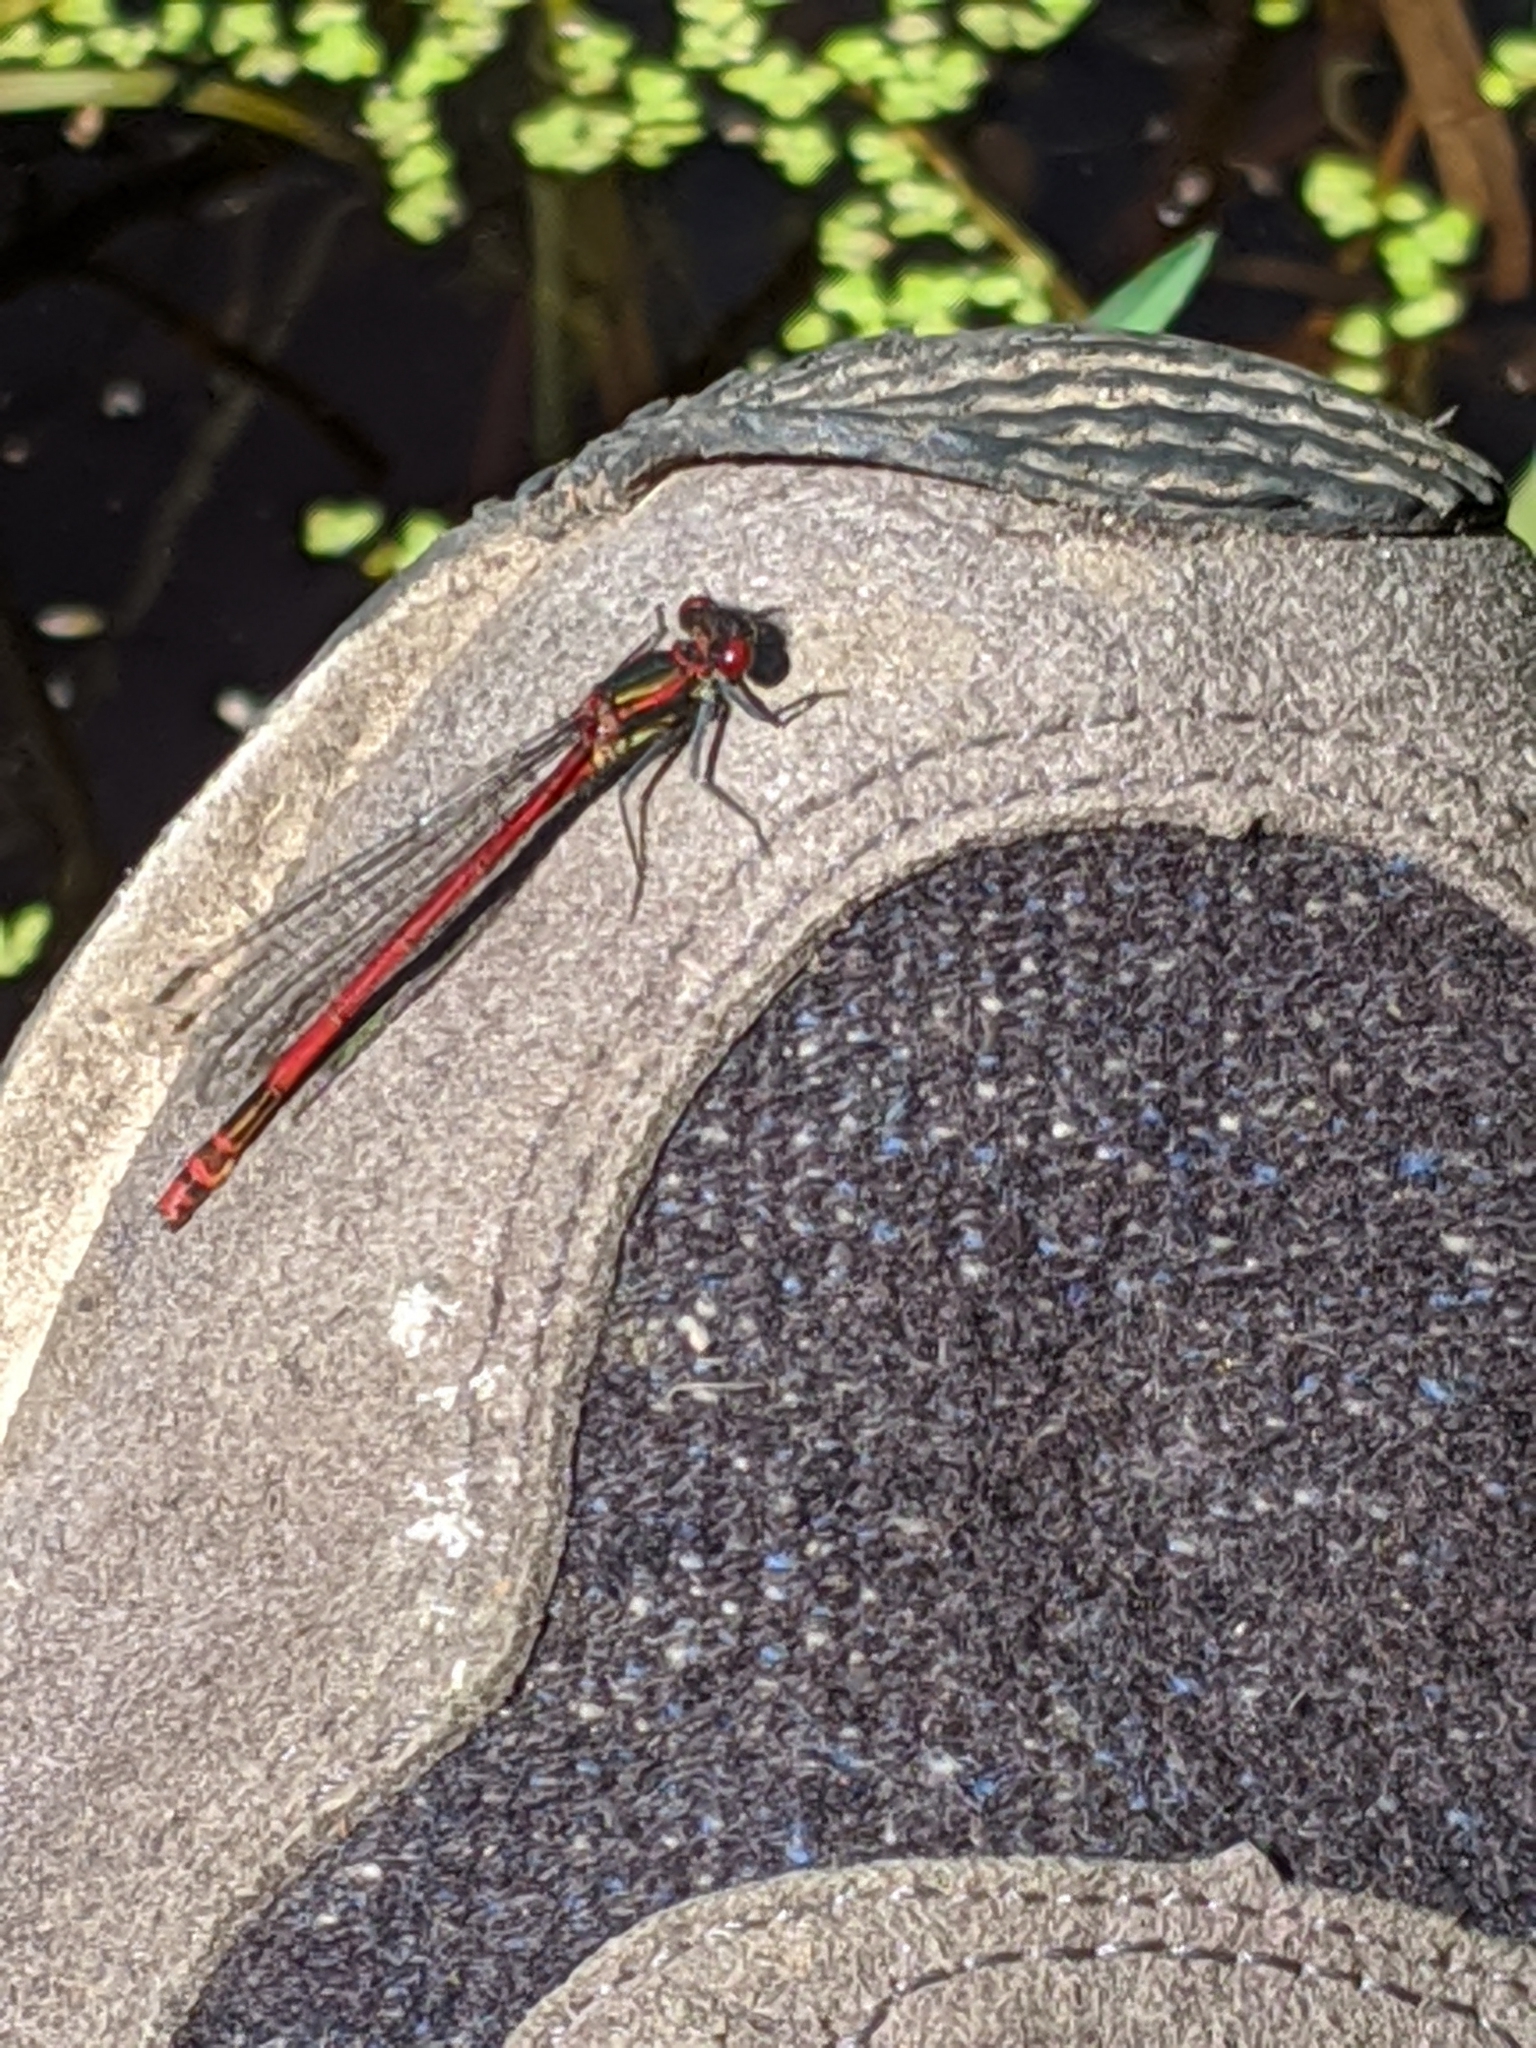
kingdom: Animalia
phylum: Arthropoda
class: Insecta
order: Odonata
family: Coenagrionidae
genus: Pyrrhosoma
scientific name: Pyrrhosoma nymphula
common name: Large red damsel
